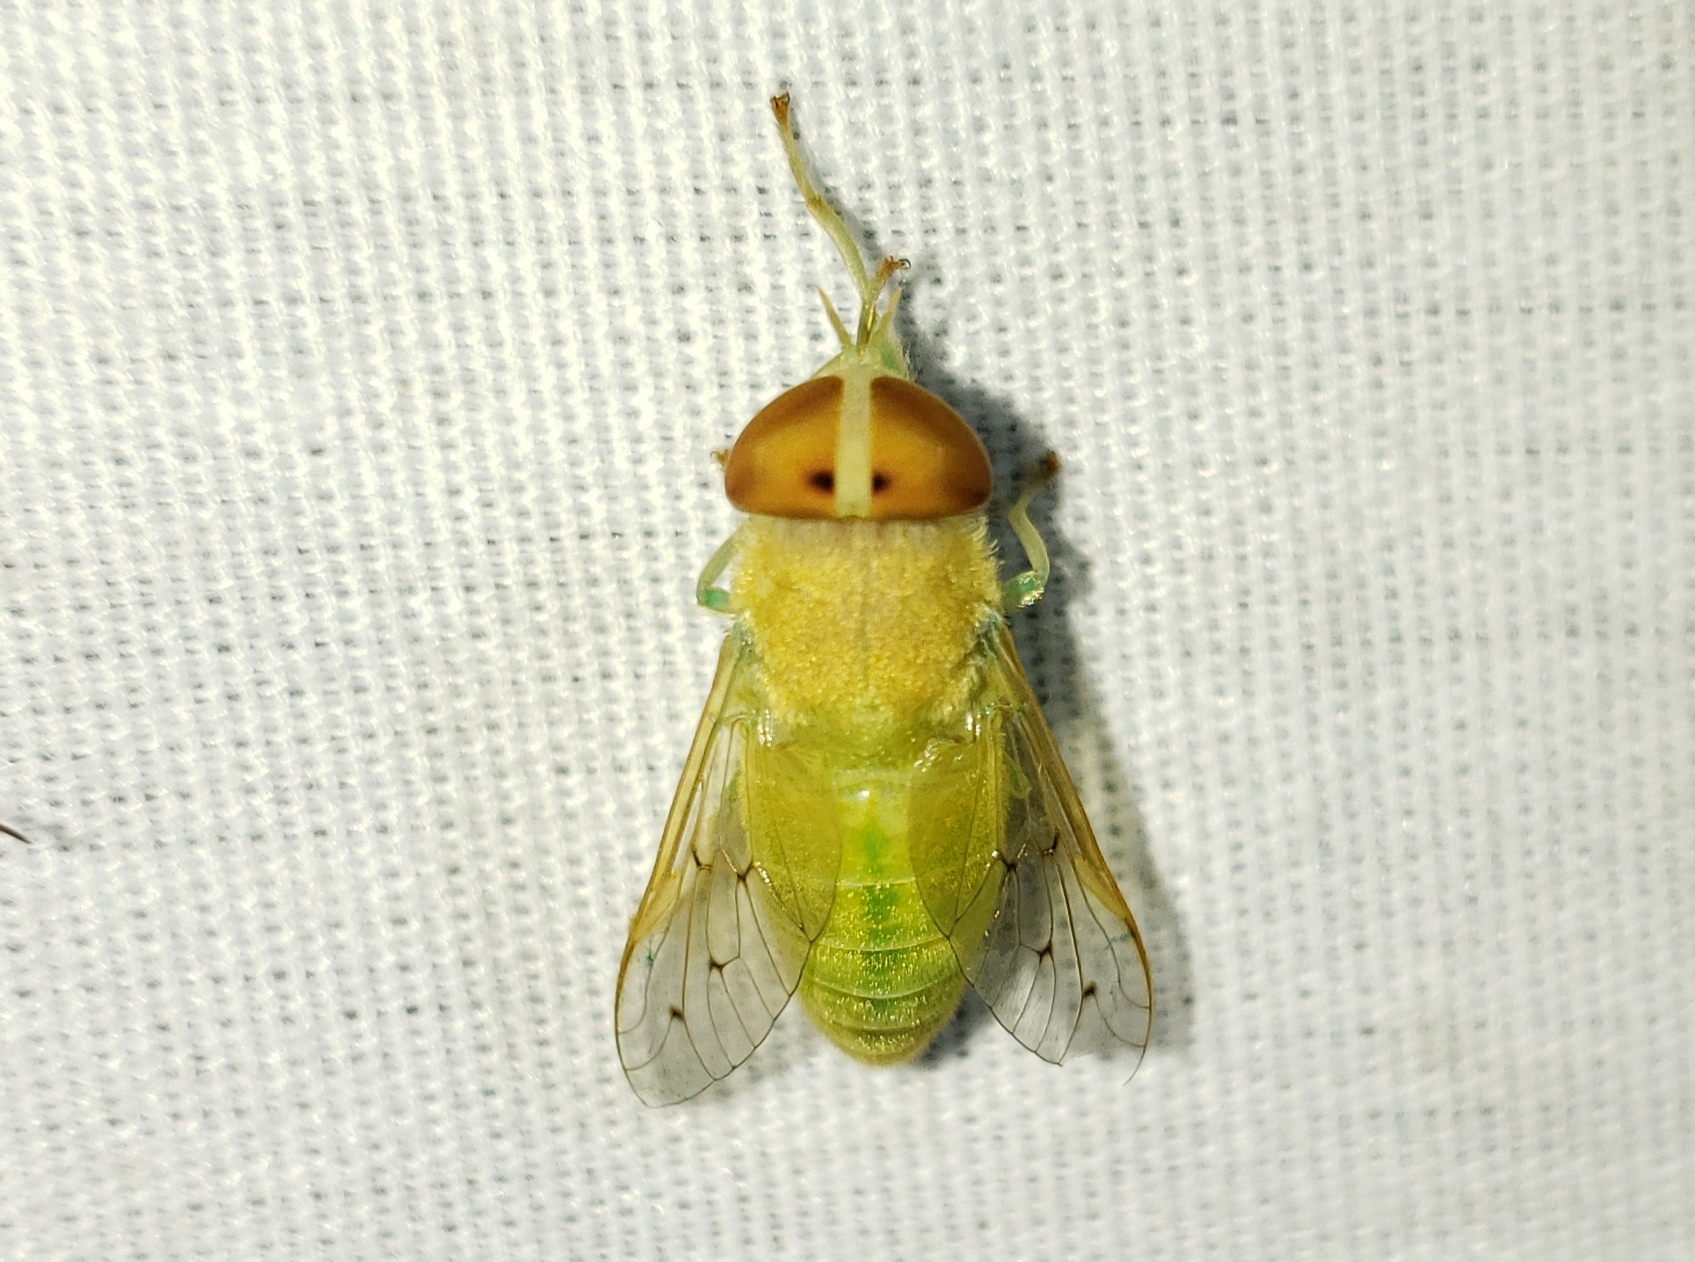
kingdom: Animalia
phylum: Arthropoda
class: Insecta
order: Diptera
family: Tabanidae
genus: Chlorotabanus
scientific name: Chlorotabanus crepuscularis
